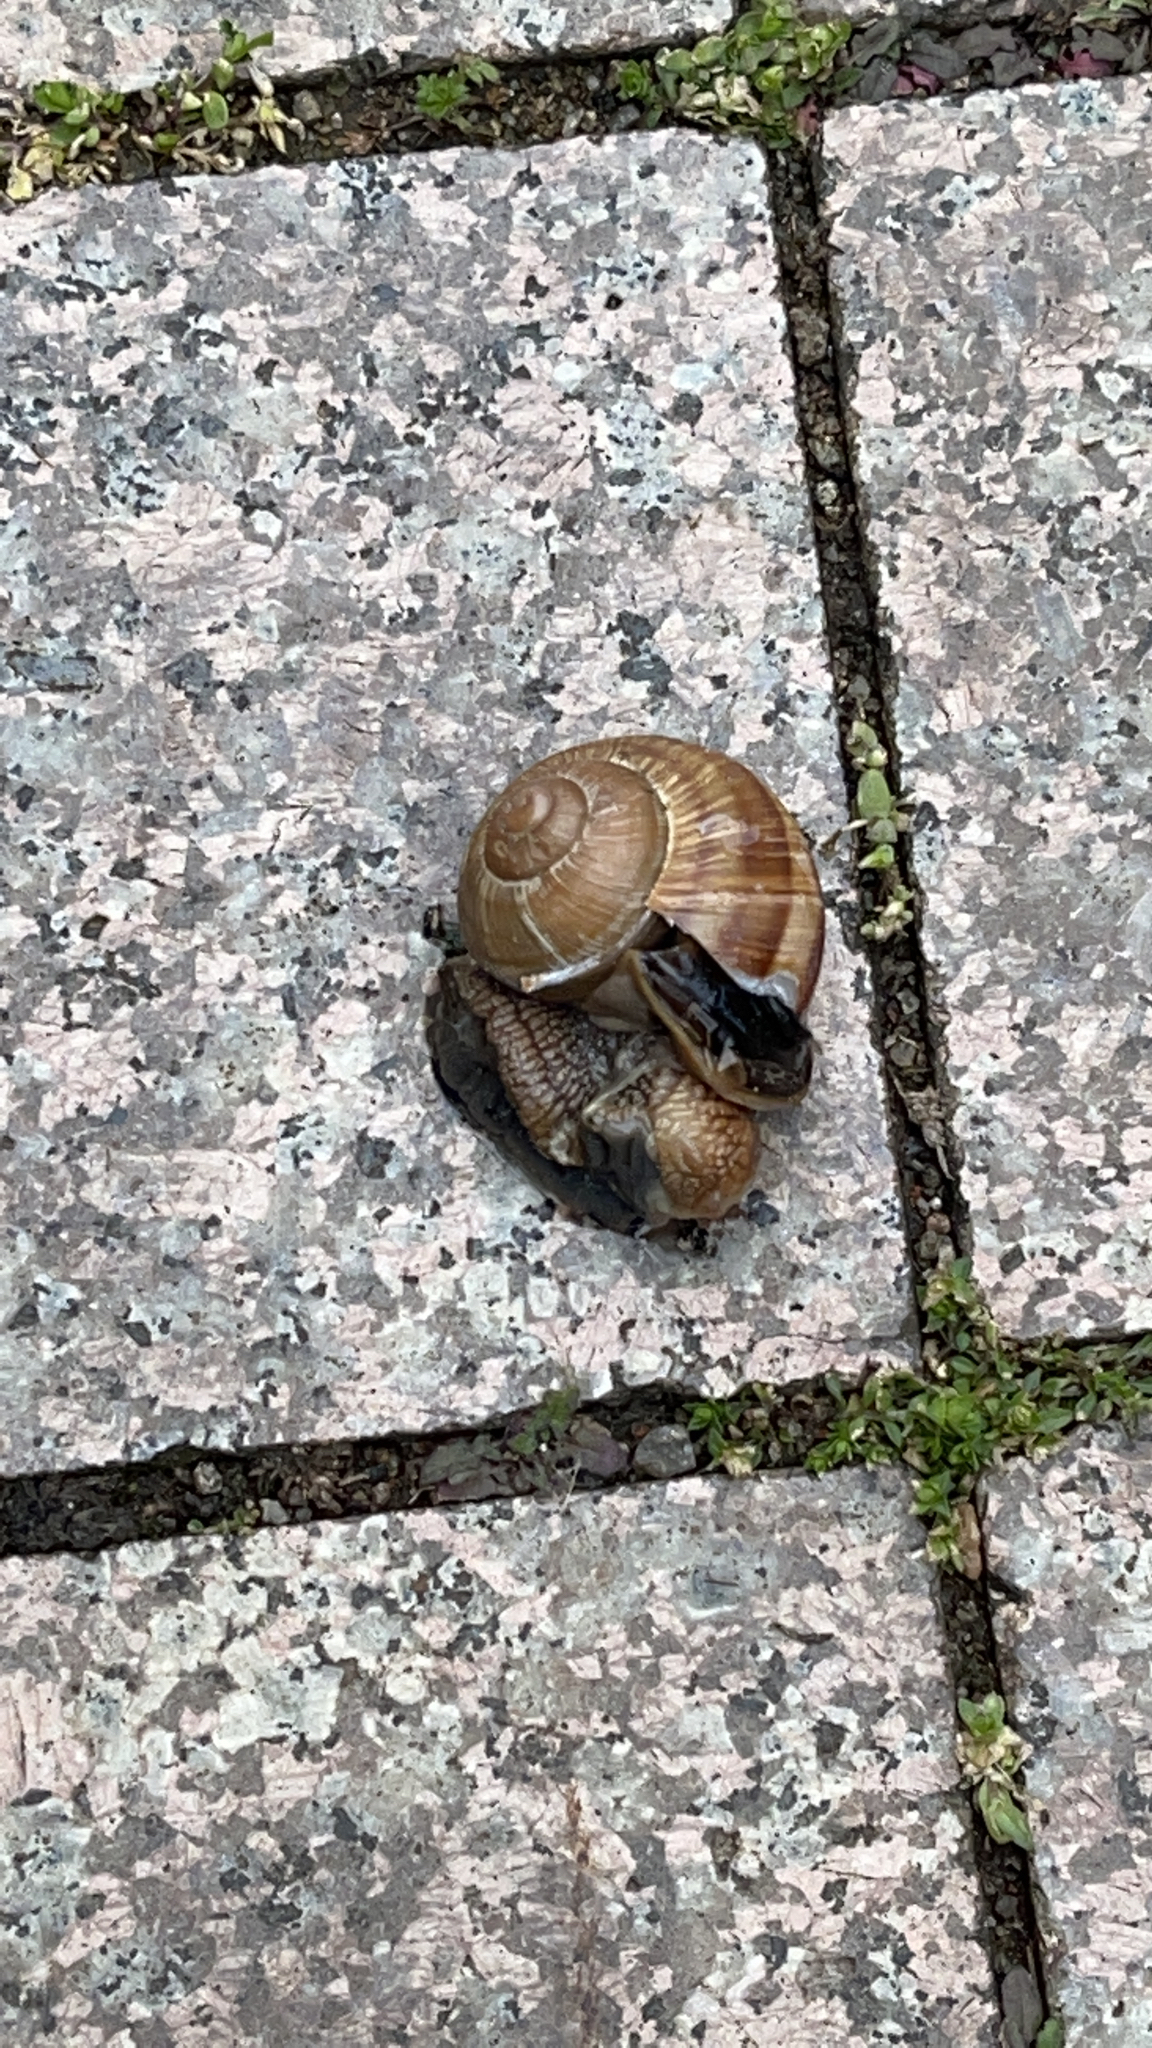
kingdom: Animalia
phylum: Mollusca
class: Gastropoda
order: Stylommatophora
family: Helicidae
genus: Helix
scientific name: Helix pomatia
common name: Roman snail
